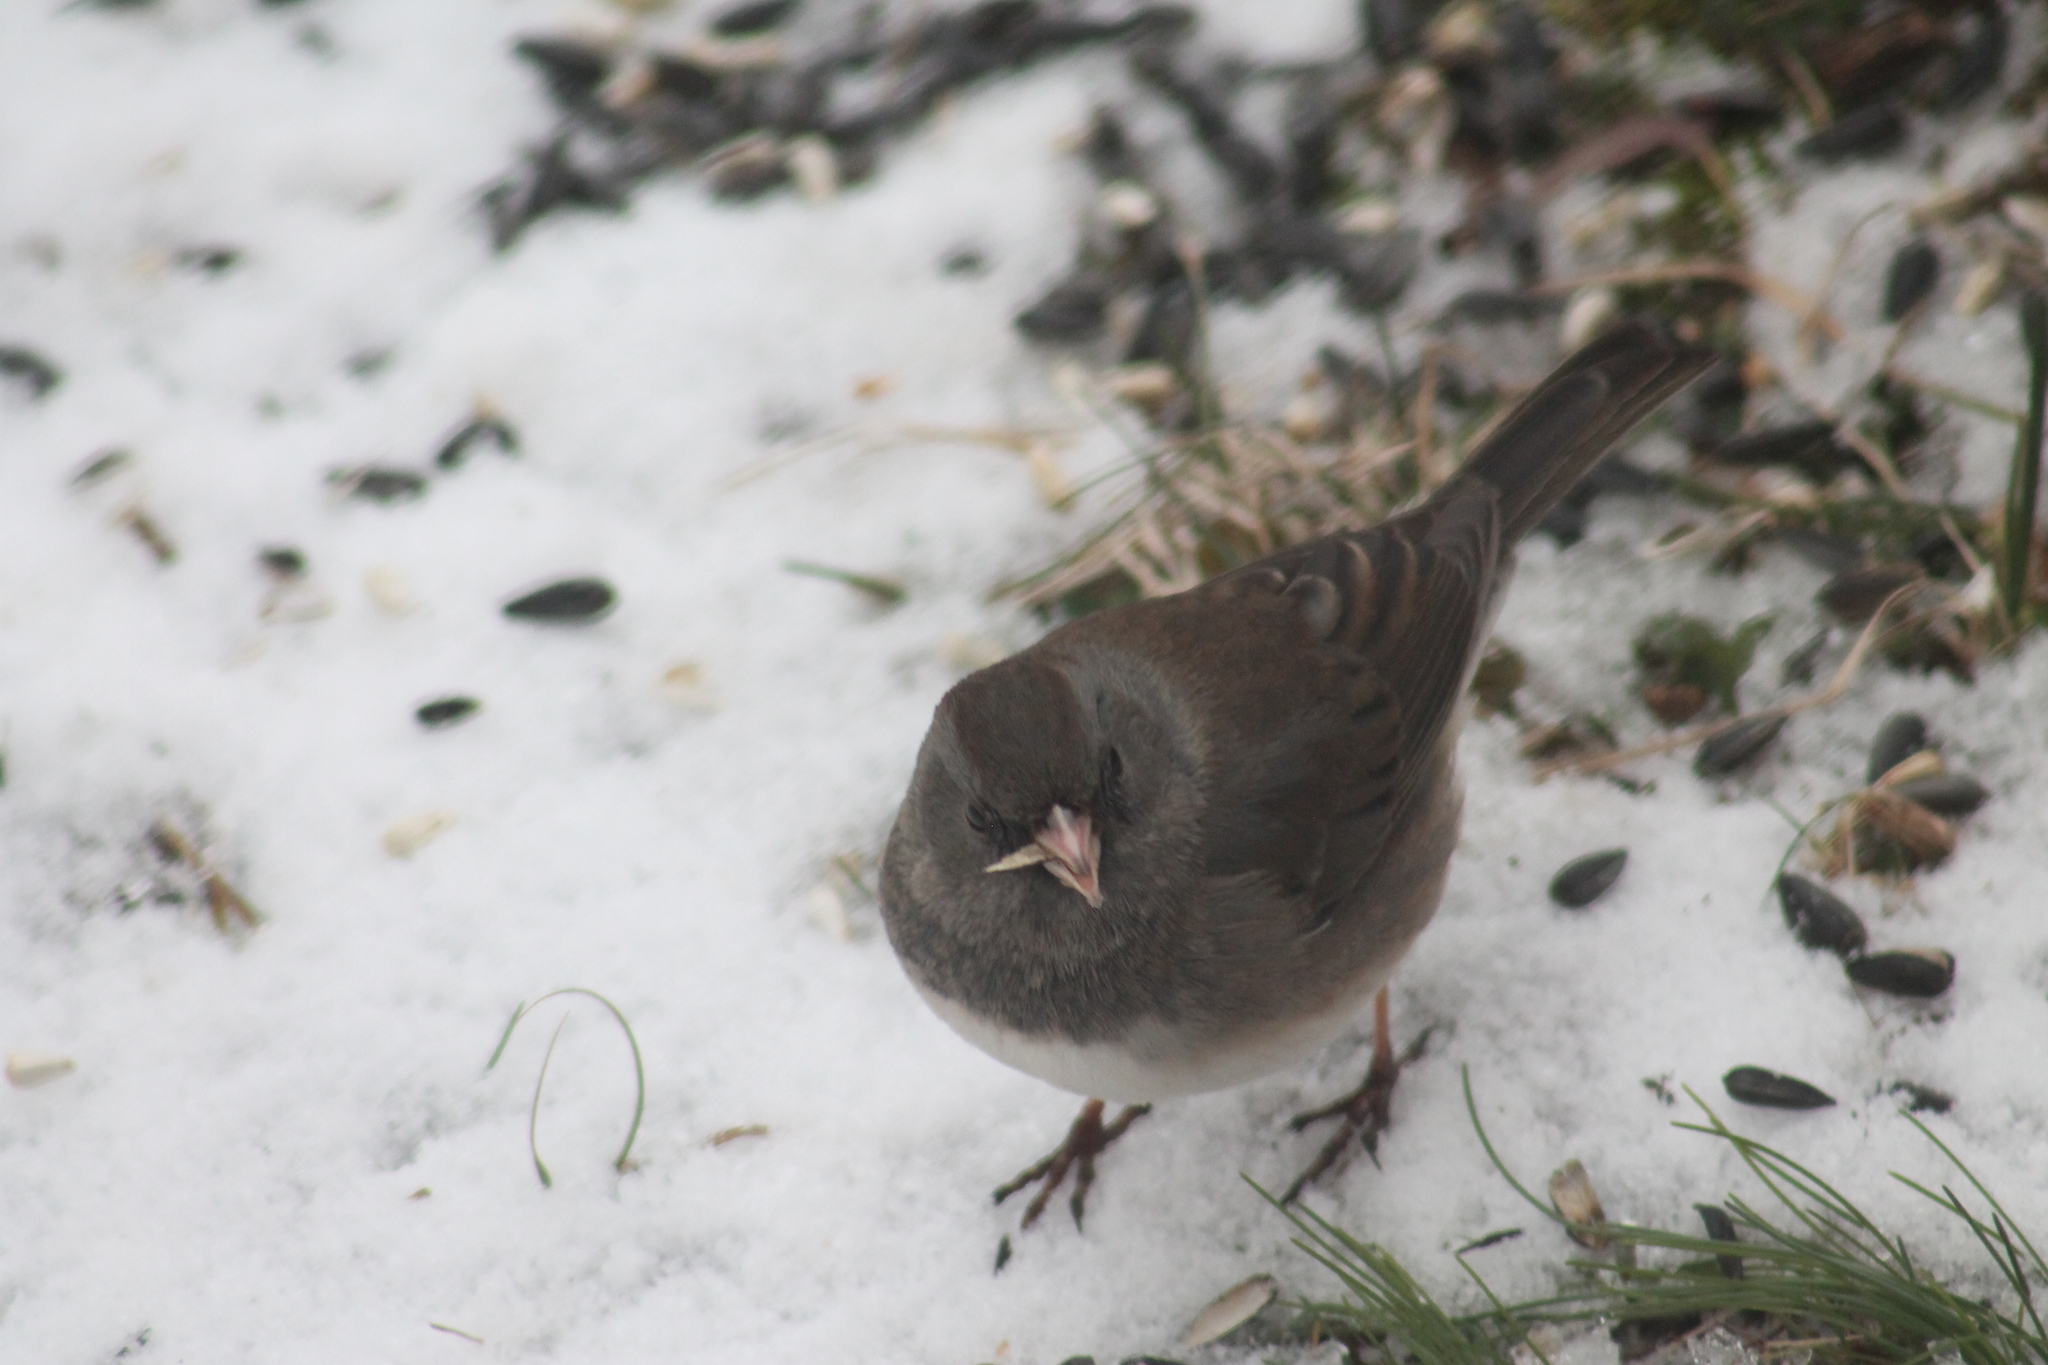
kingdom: Animalia
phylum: Chordata
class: Aves
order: Passeriformes
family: Passerellidae
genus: Junco
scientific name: Junco hyemalis
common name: Dark-eyed junco
